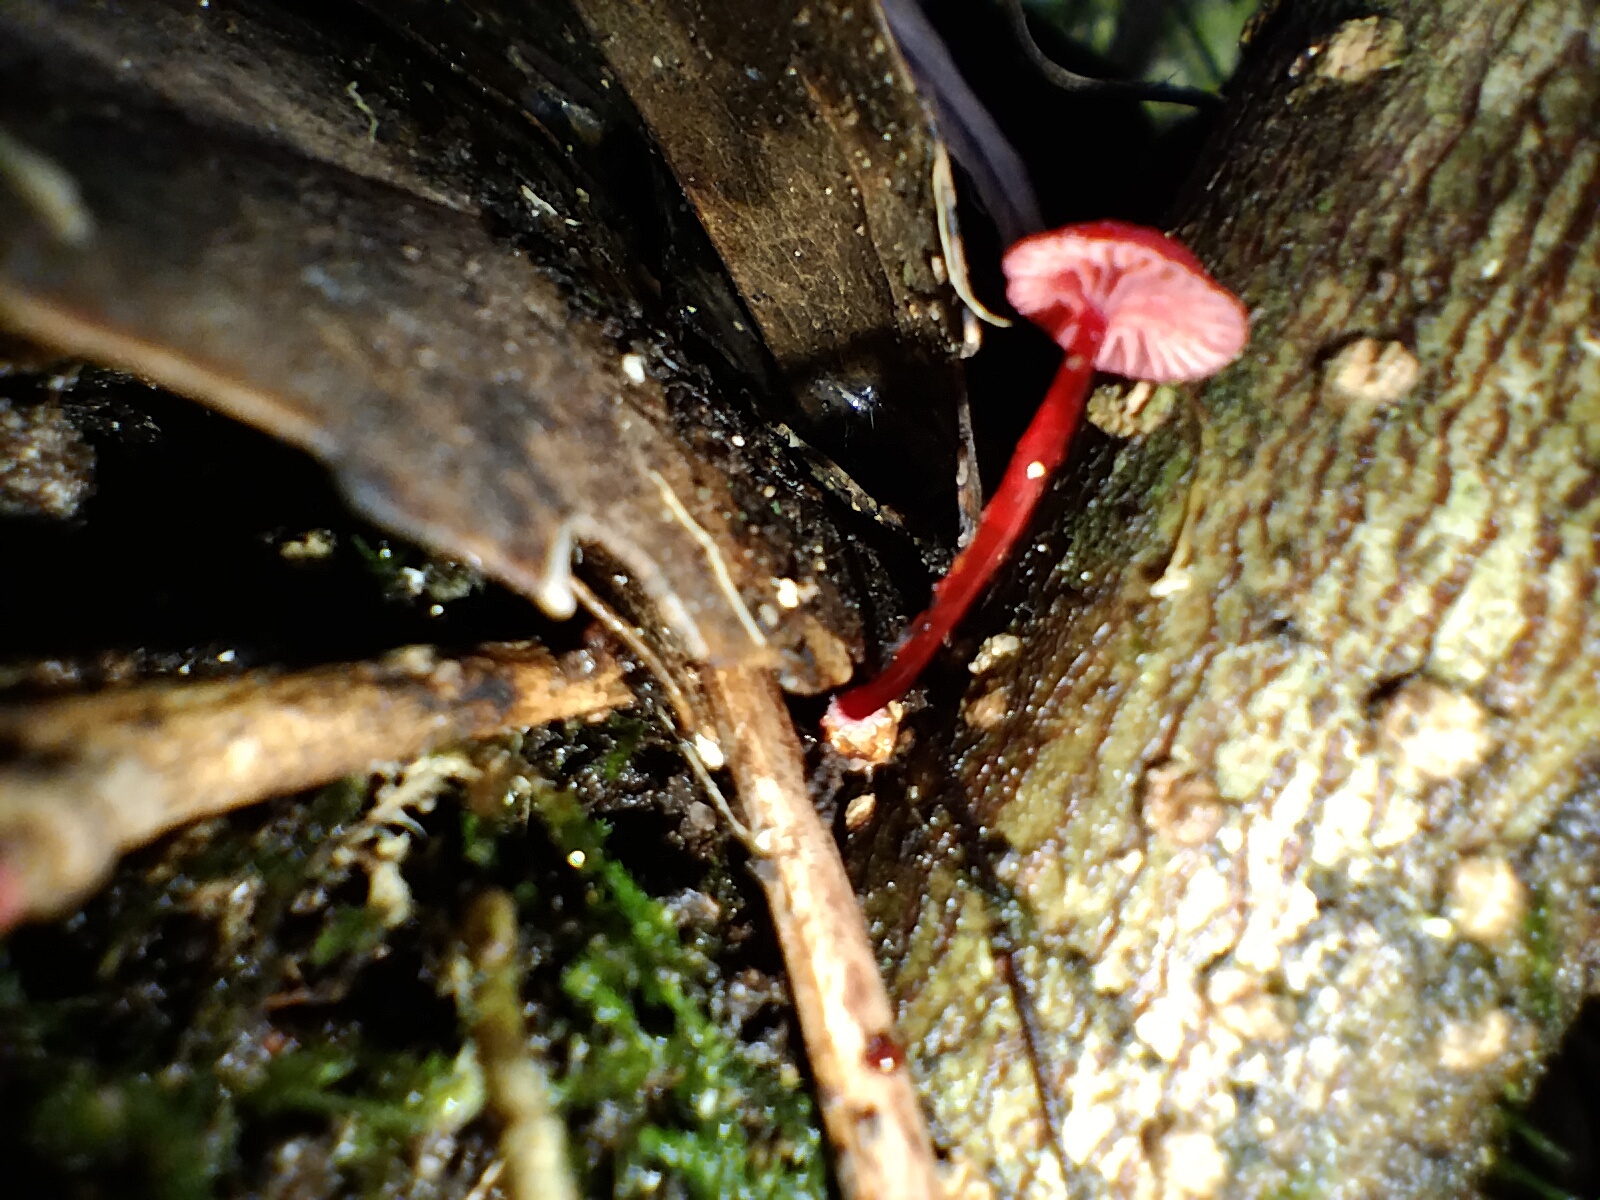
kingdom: Fungi
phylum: Basidiomycota
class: Agaricomycetes
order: Agaricales
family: Mycenaceae
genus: Cruentomycena
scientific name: Cruentomycena viscidocruenta
